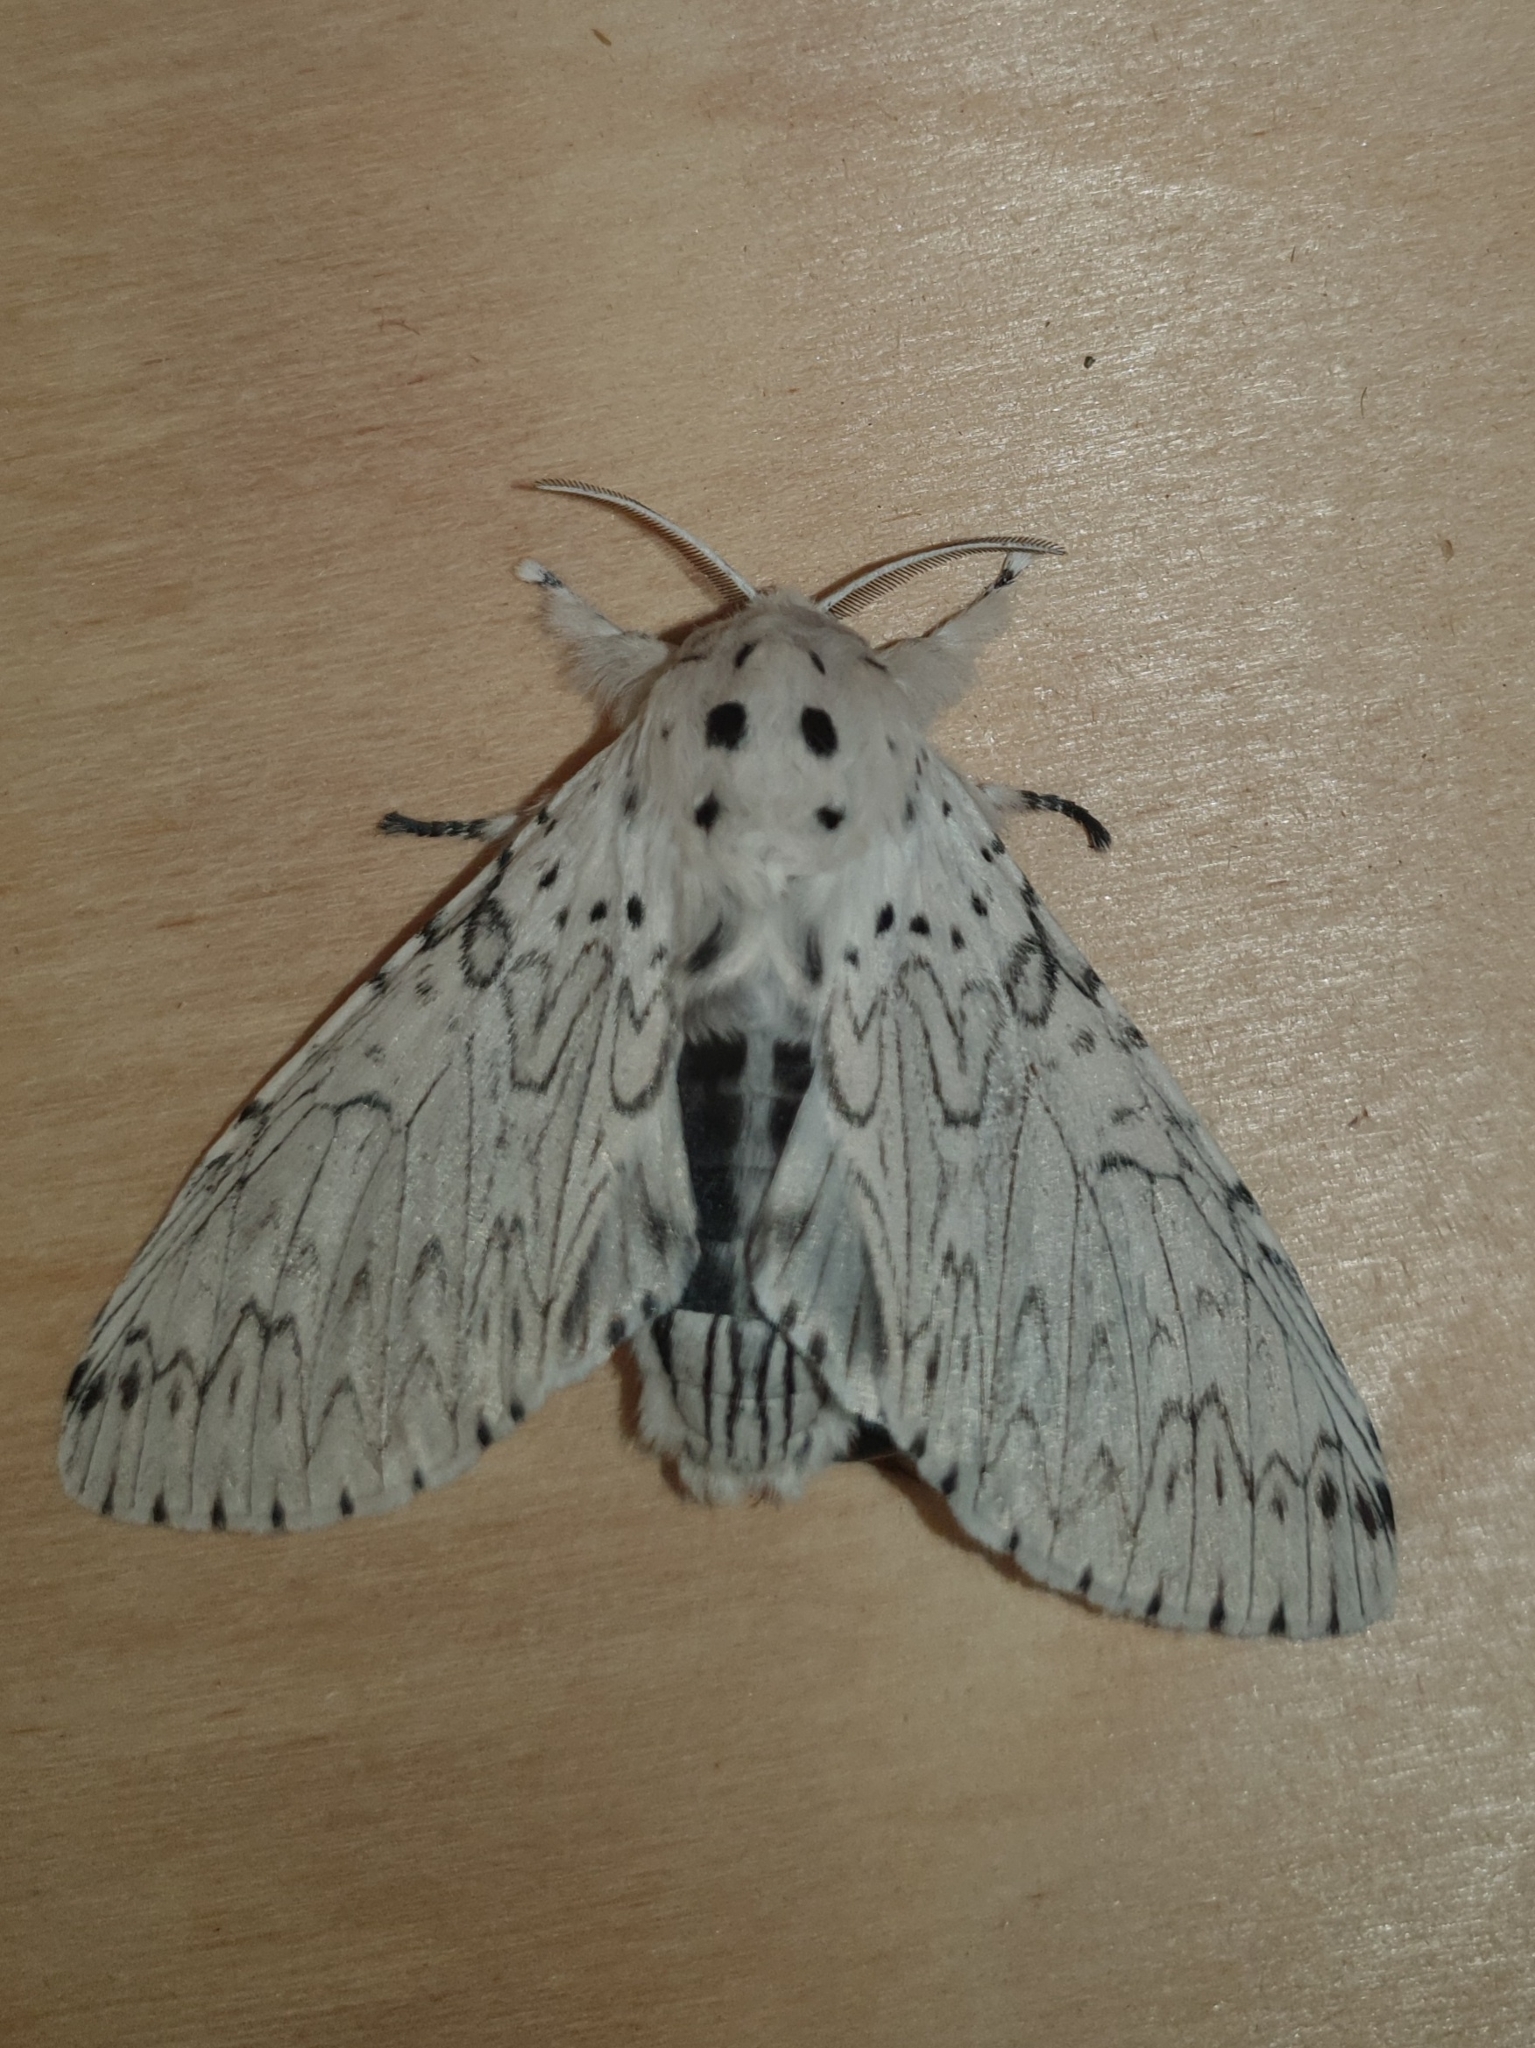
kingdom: Animalia
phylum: Arthropoda
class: Insecta
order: Lepidoptera
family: Notodontidae
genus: Cerura
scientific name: Cerura erminea
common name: Lesser puss moth
